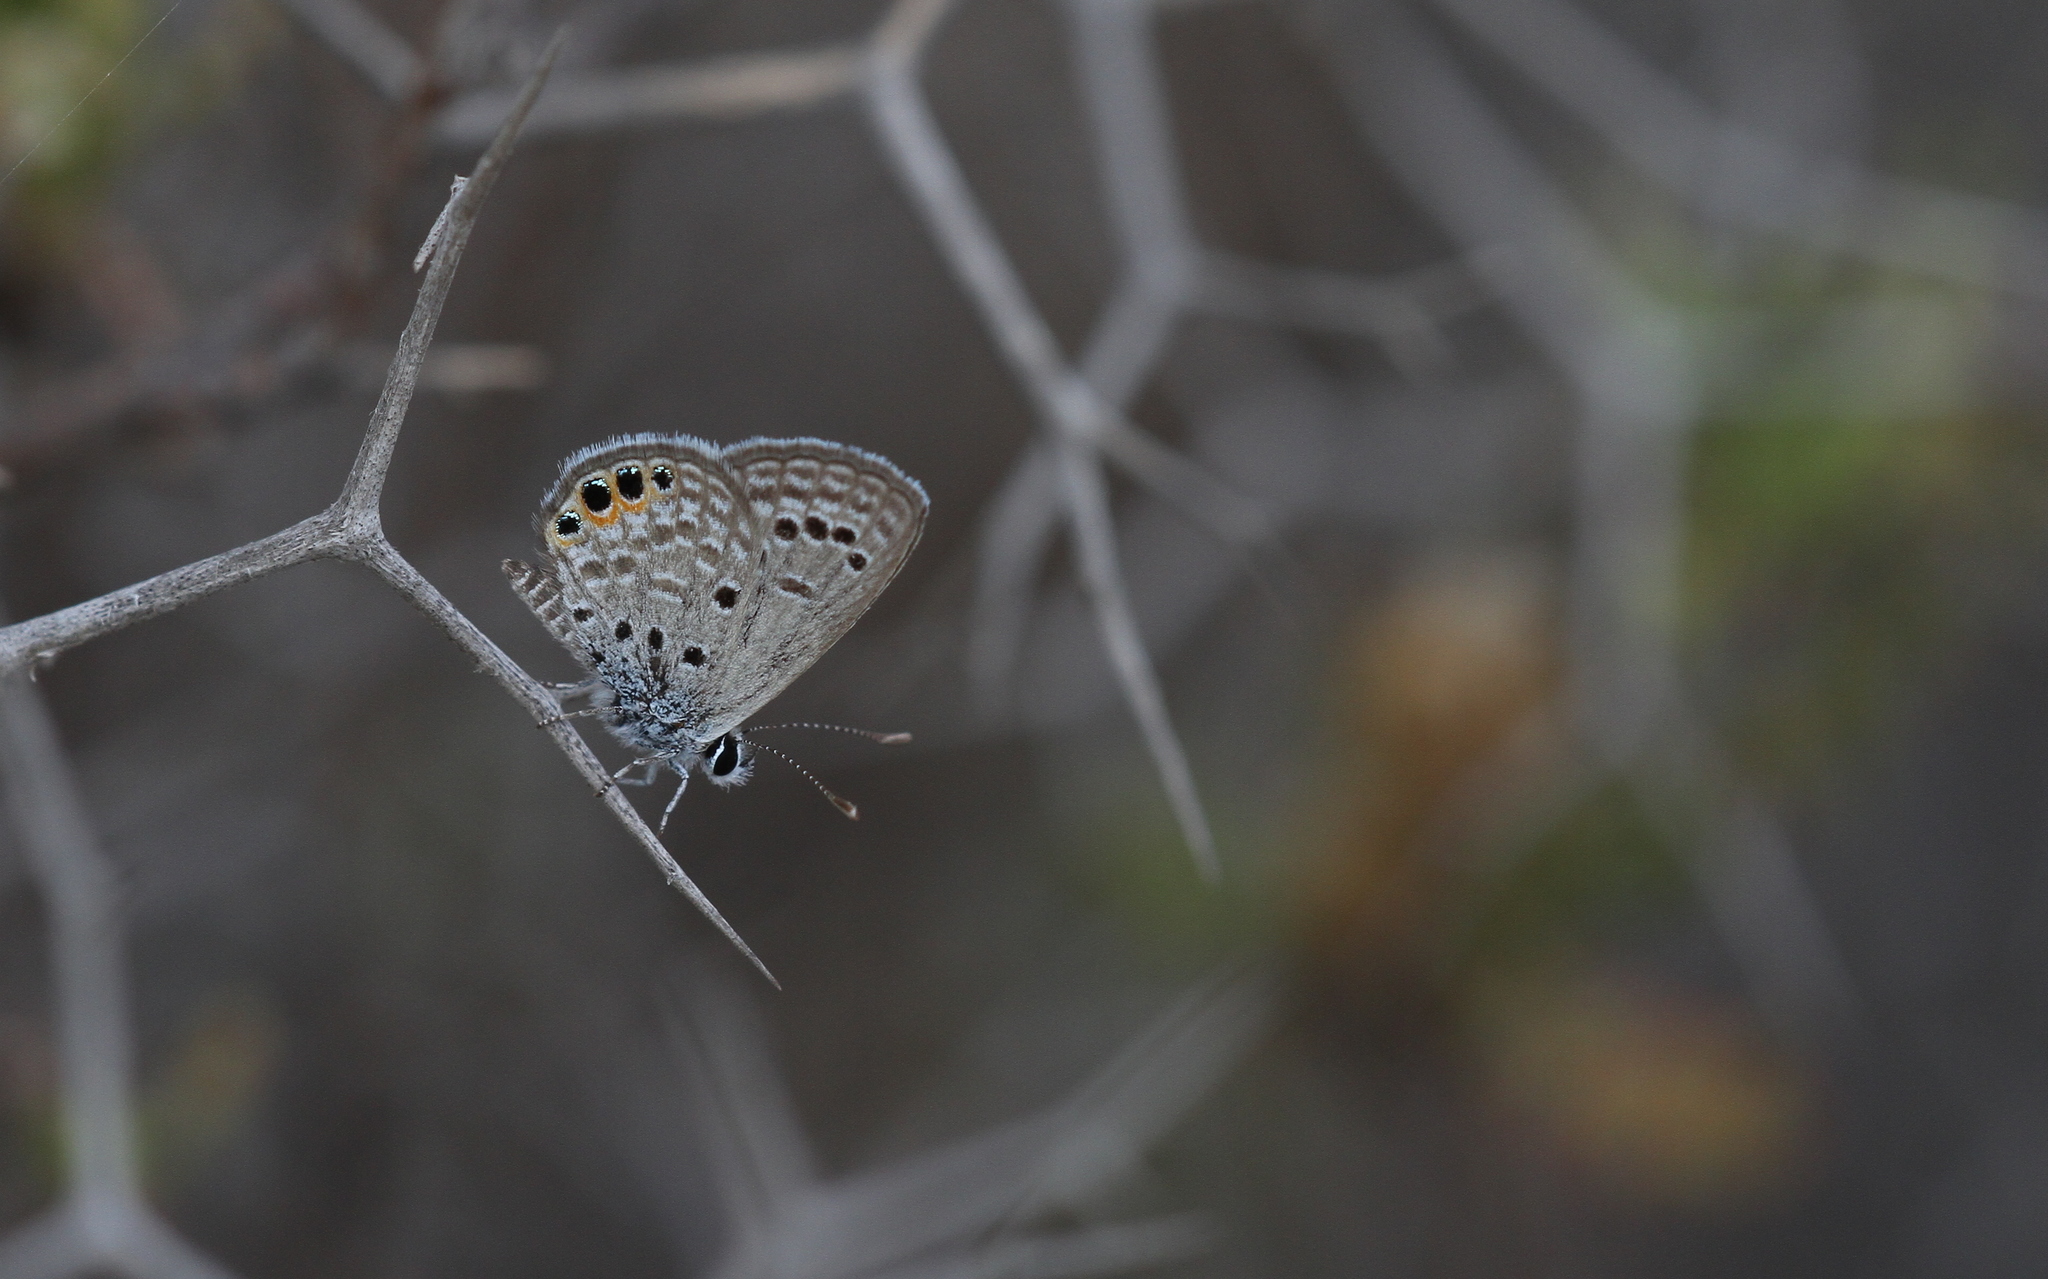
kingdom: Animalia
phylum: Arthropoda
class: Insecta
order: Lepidoptera
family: Lycaenidae
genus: Freyeria
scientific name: Freyeria trochylus
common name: Grass jewel
